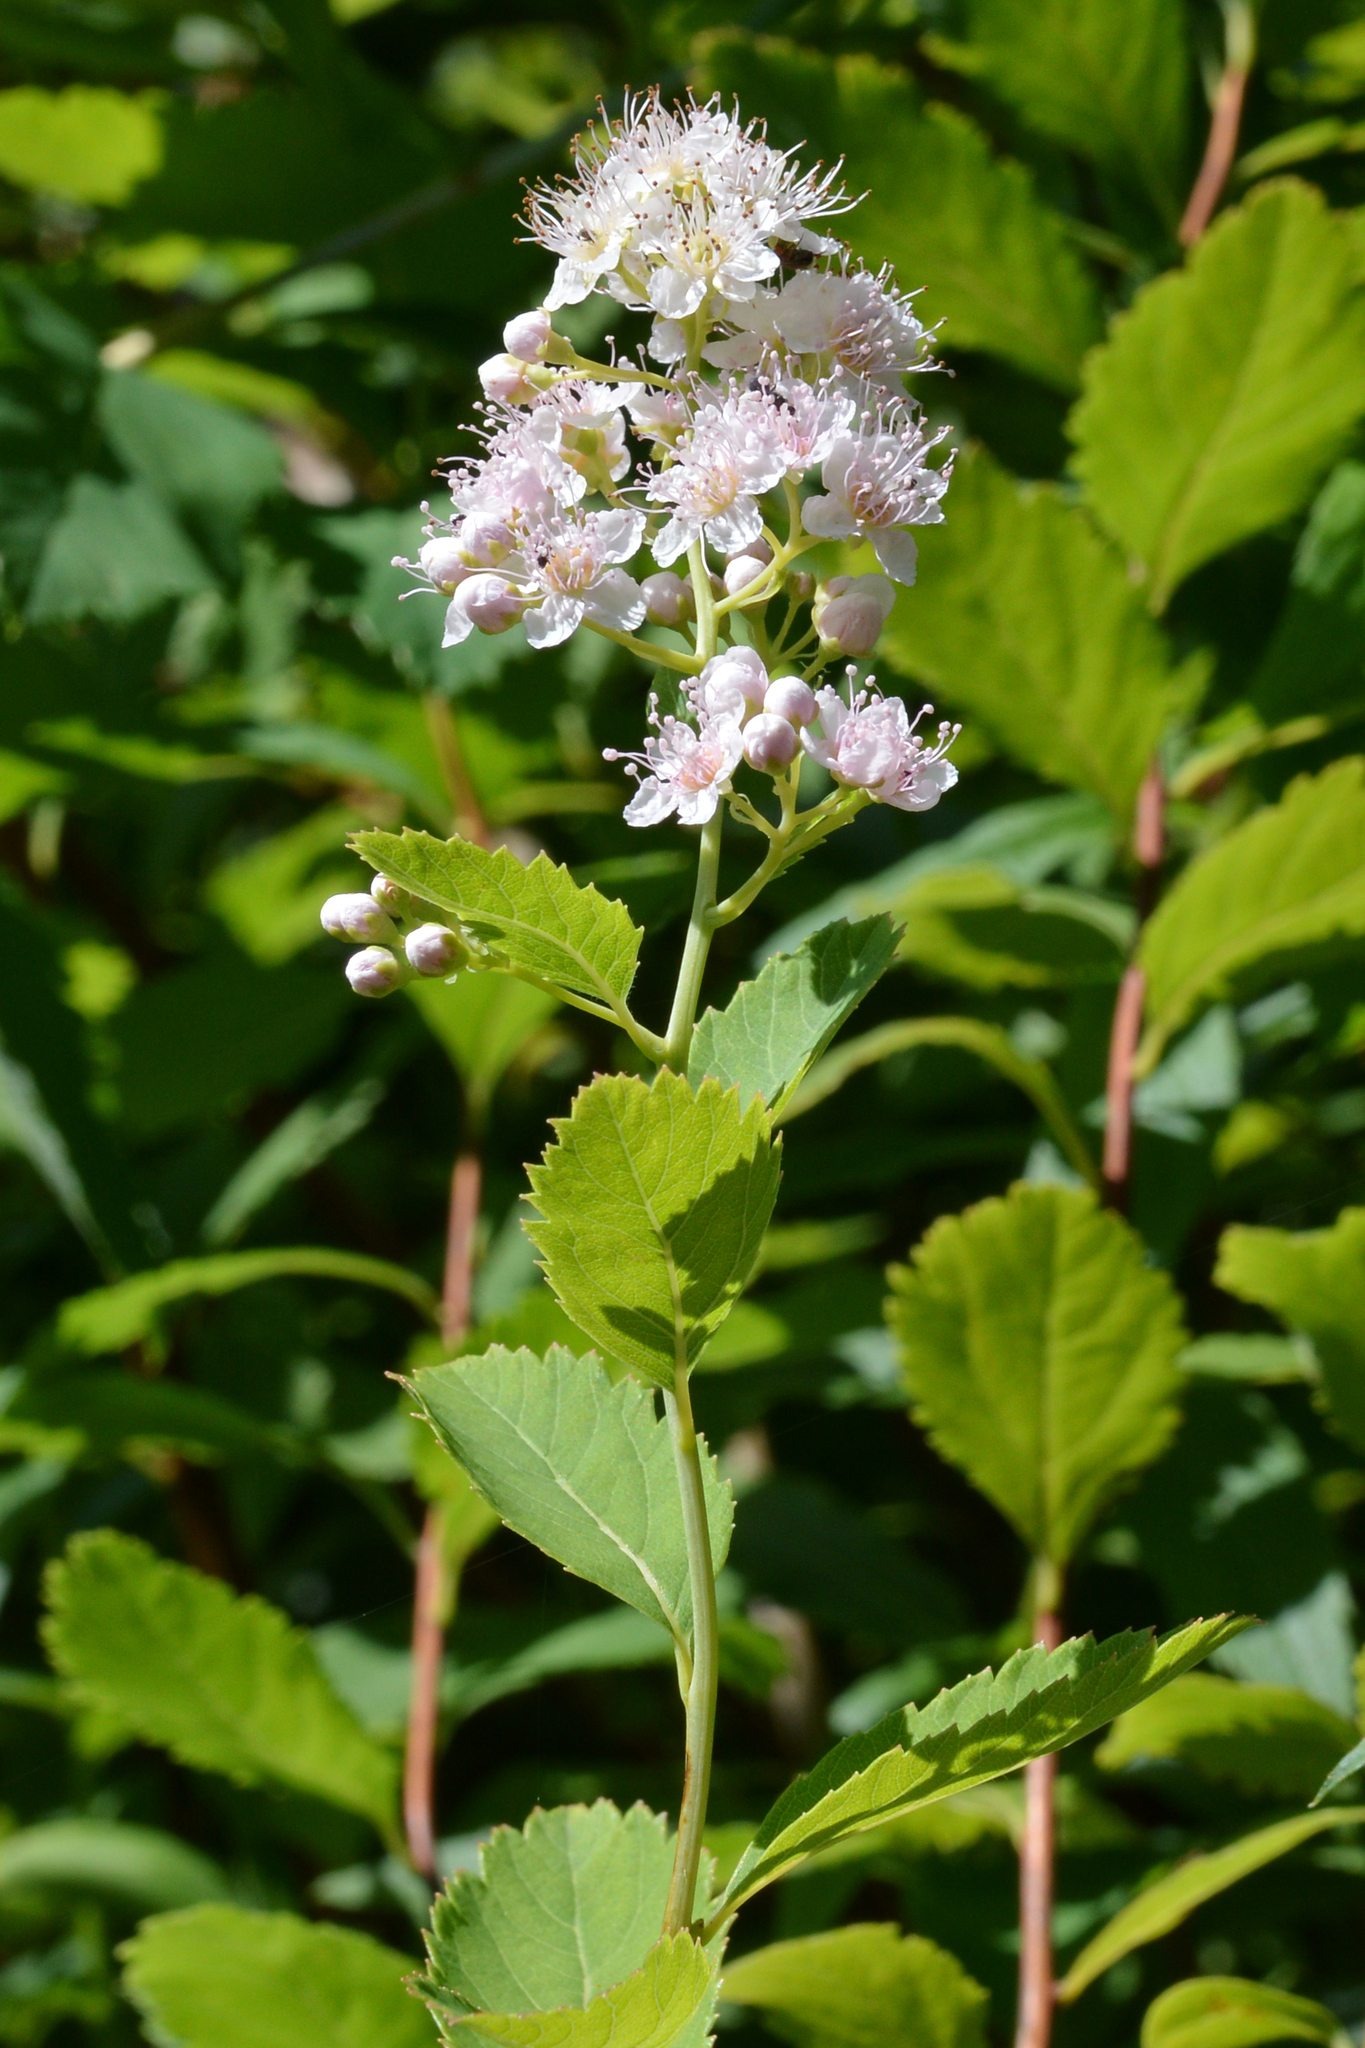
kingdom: Plantae
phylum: Tracheophyta
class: Magnoliopsida
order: Rosales
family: Rosaceae
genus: Spiraea
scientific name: Spiraea alba
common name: Pale bridewort
